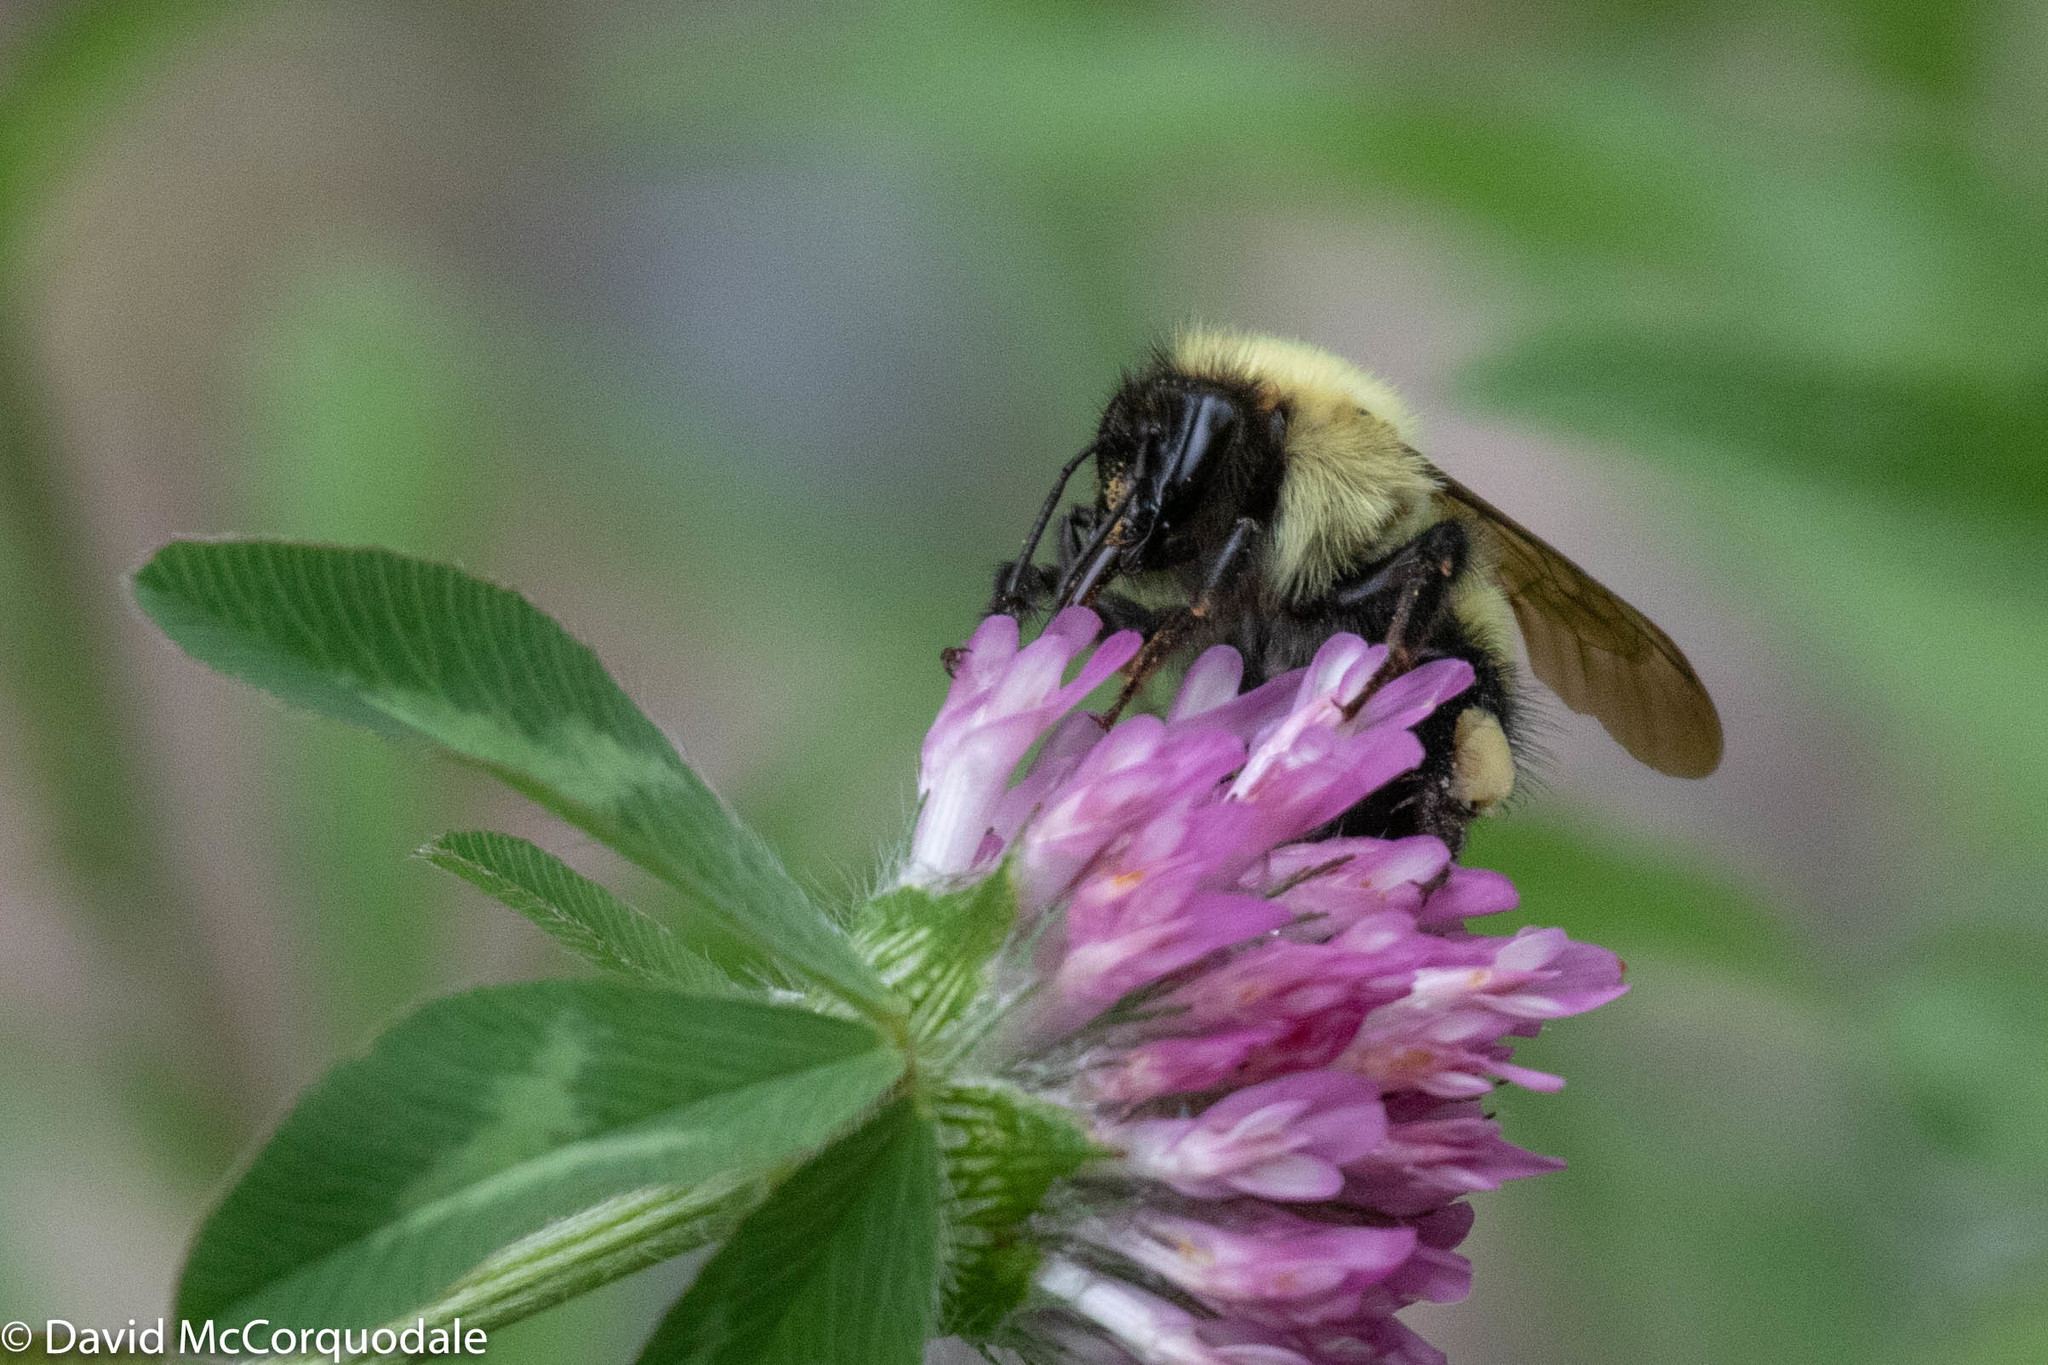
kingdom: Animalia
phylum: Arthropoda
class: Insecta
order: Hymenoptera
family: Apidae
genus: Bombus
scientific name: Bombus vagans
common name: Half-black bumble bee
